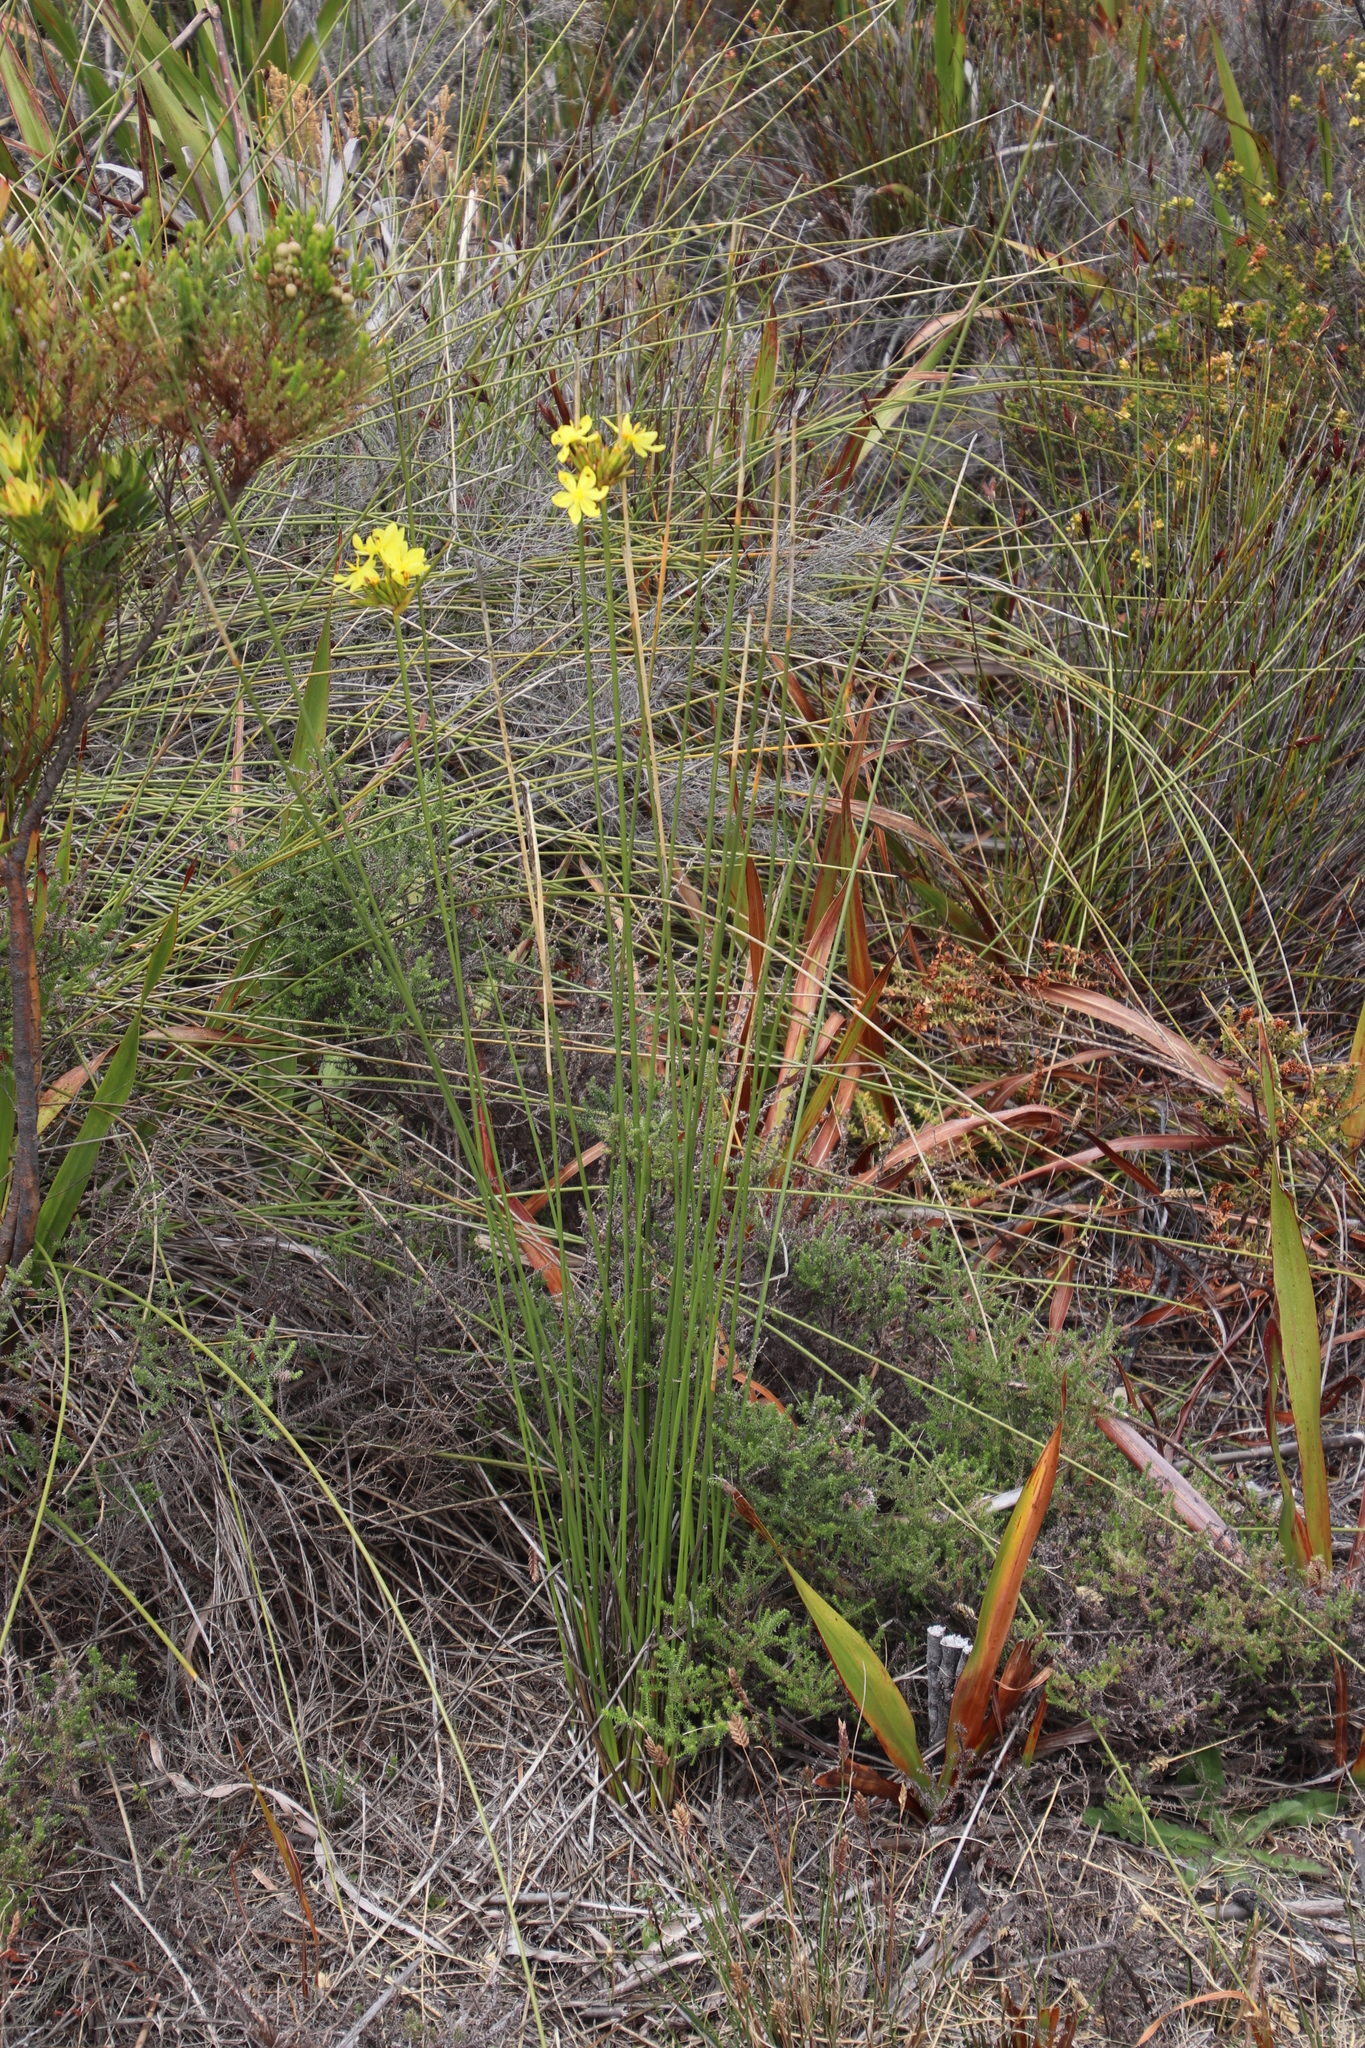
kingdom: Plantae
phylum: Tracheophyta
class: Liliopsida
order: Asparagales
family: Iridaceae
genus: Bobartia
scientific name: Bobartia indica
